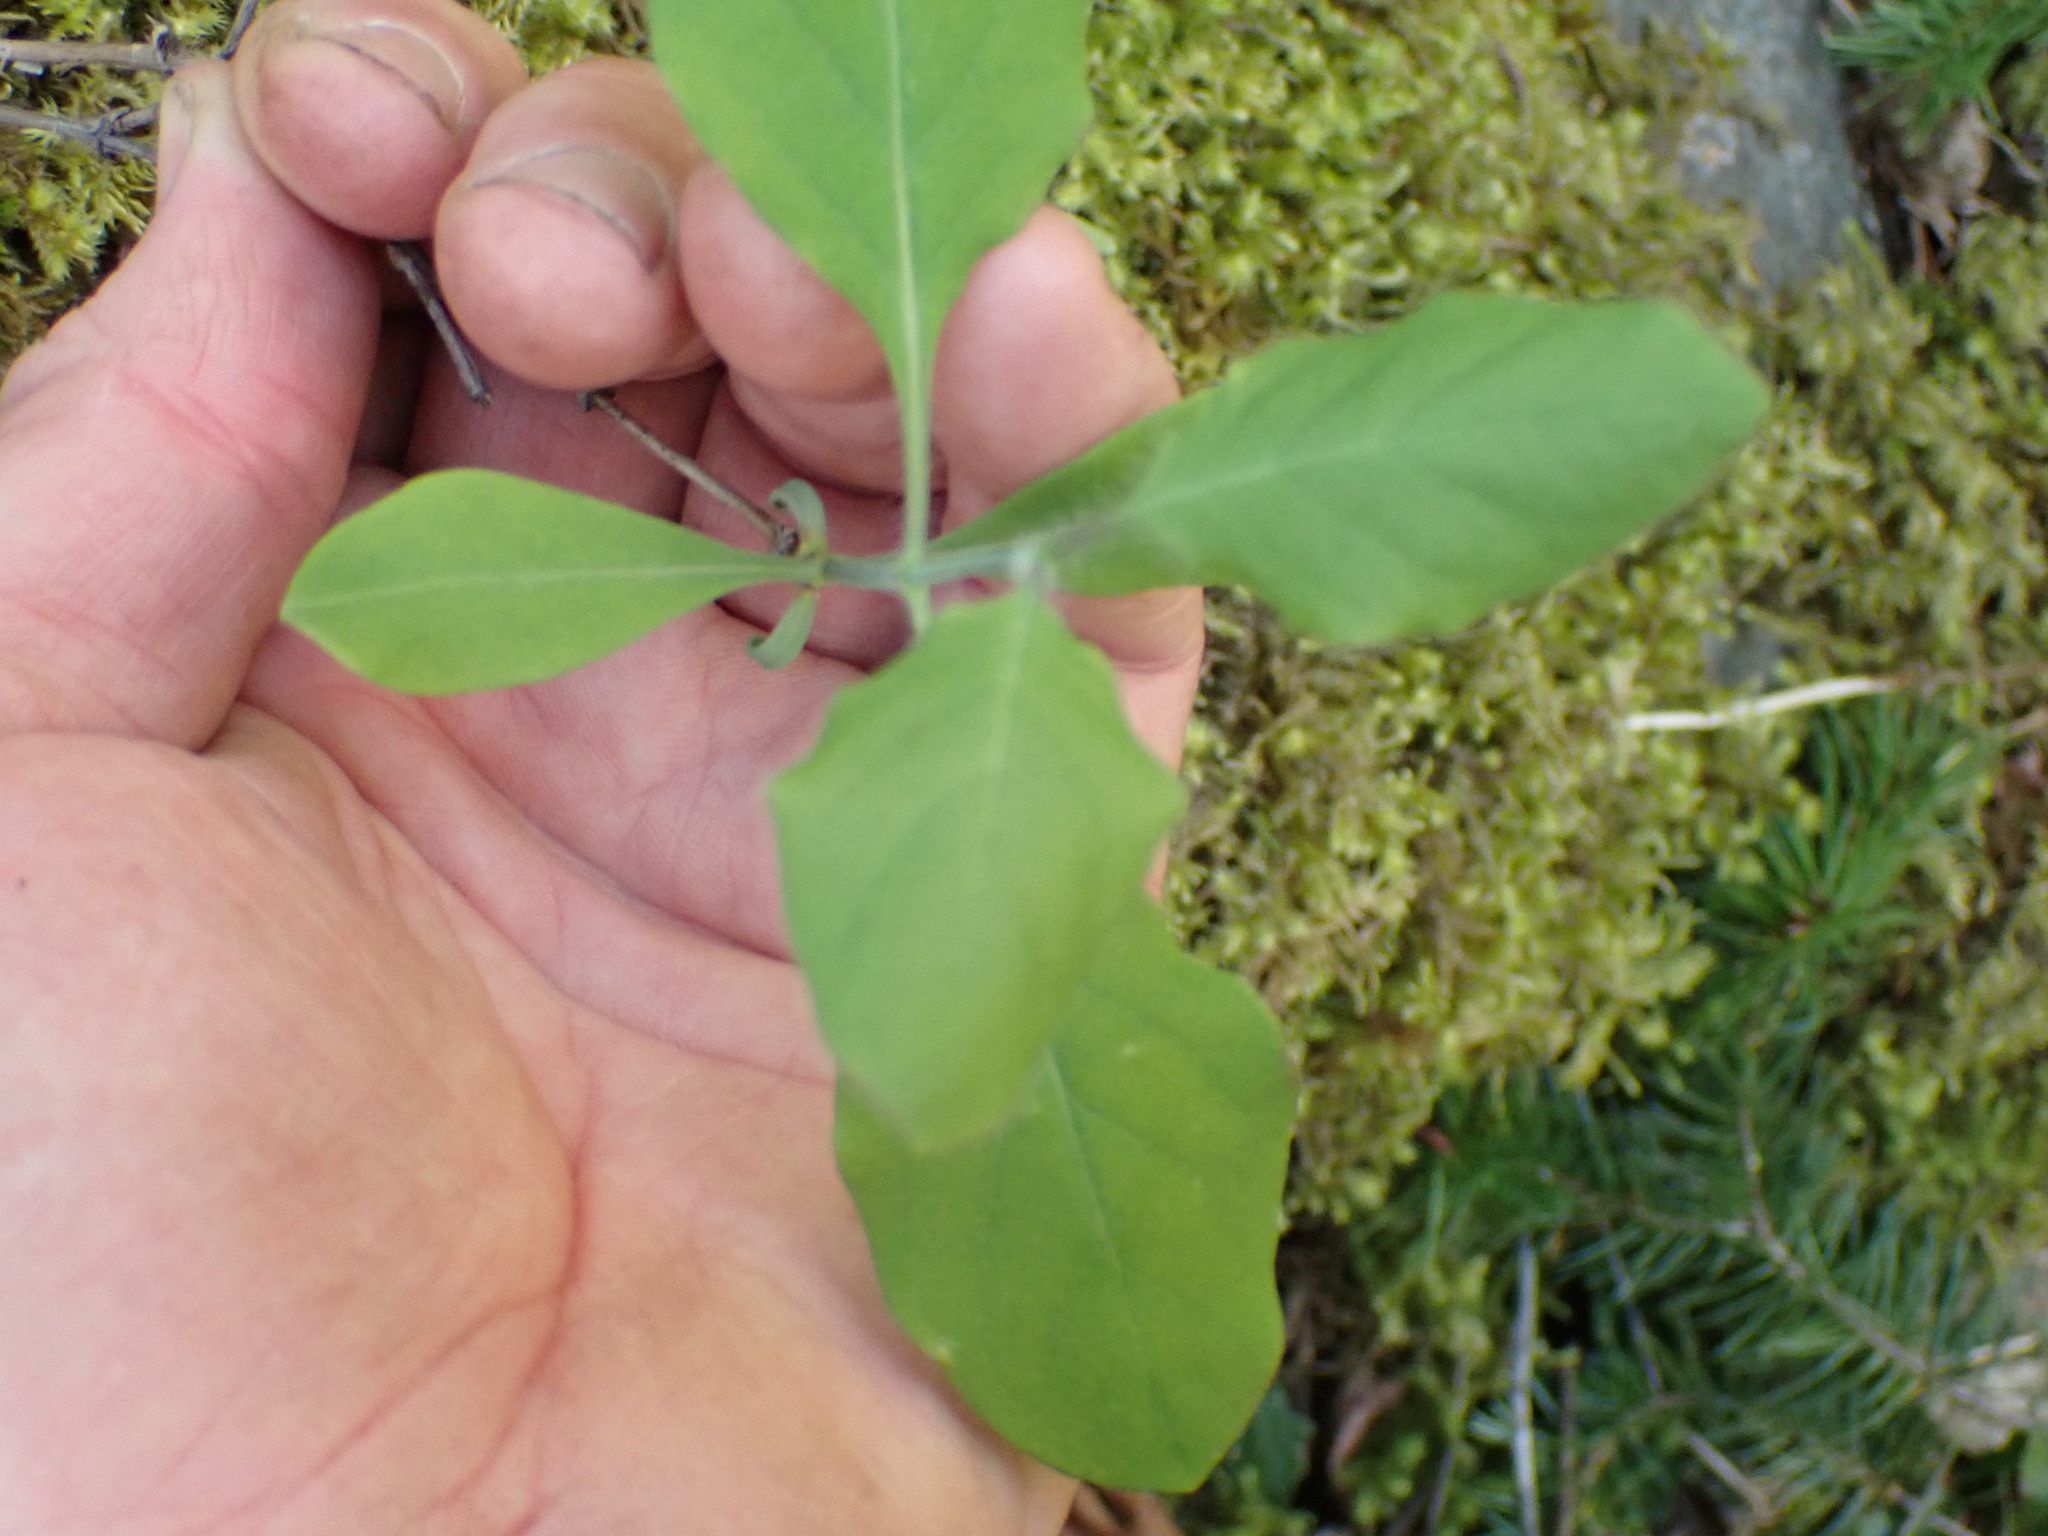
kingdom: Plantae
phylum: Tracheophyta
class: Magnoliopsida
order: Dipsacales
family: Caprifoliaceae
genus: Lonicera
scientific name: Lonicera ciliosa
